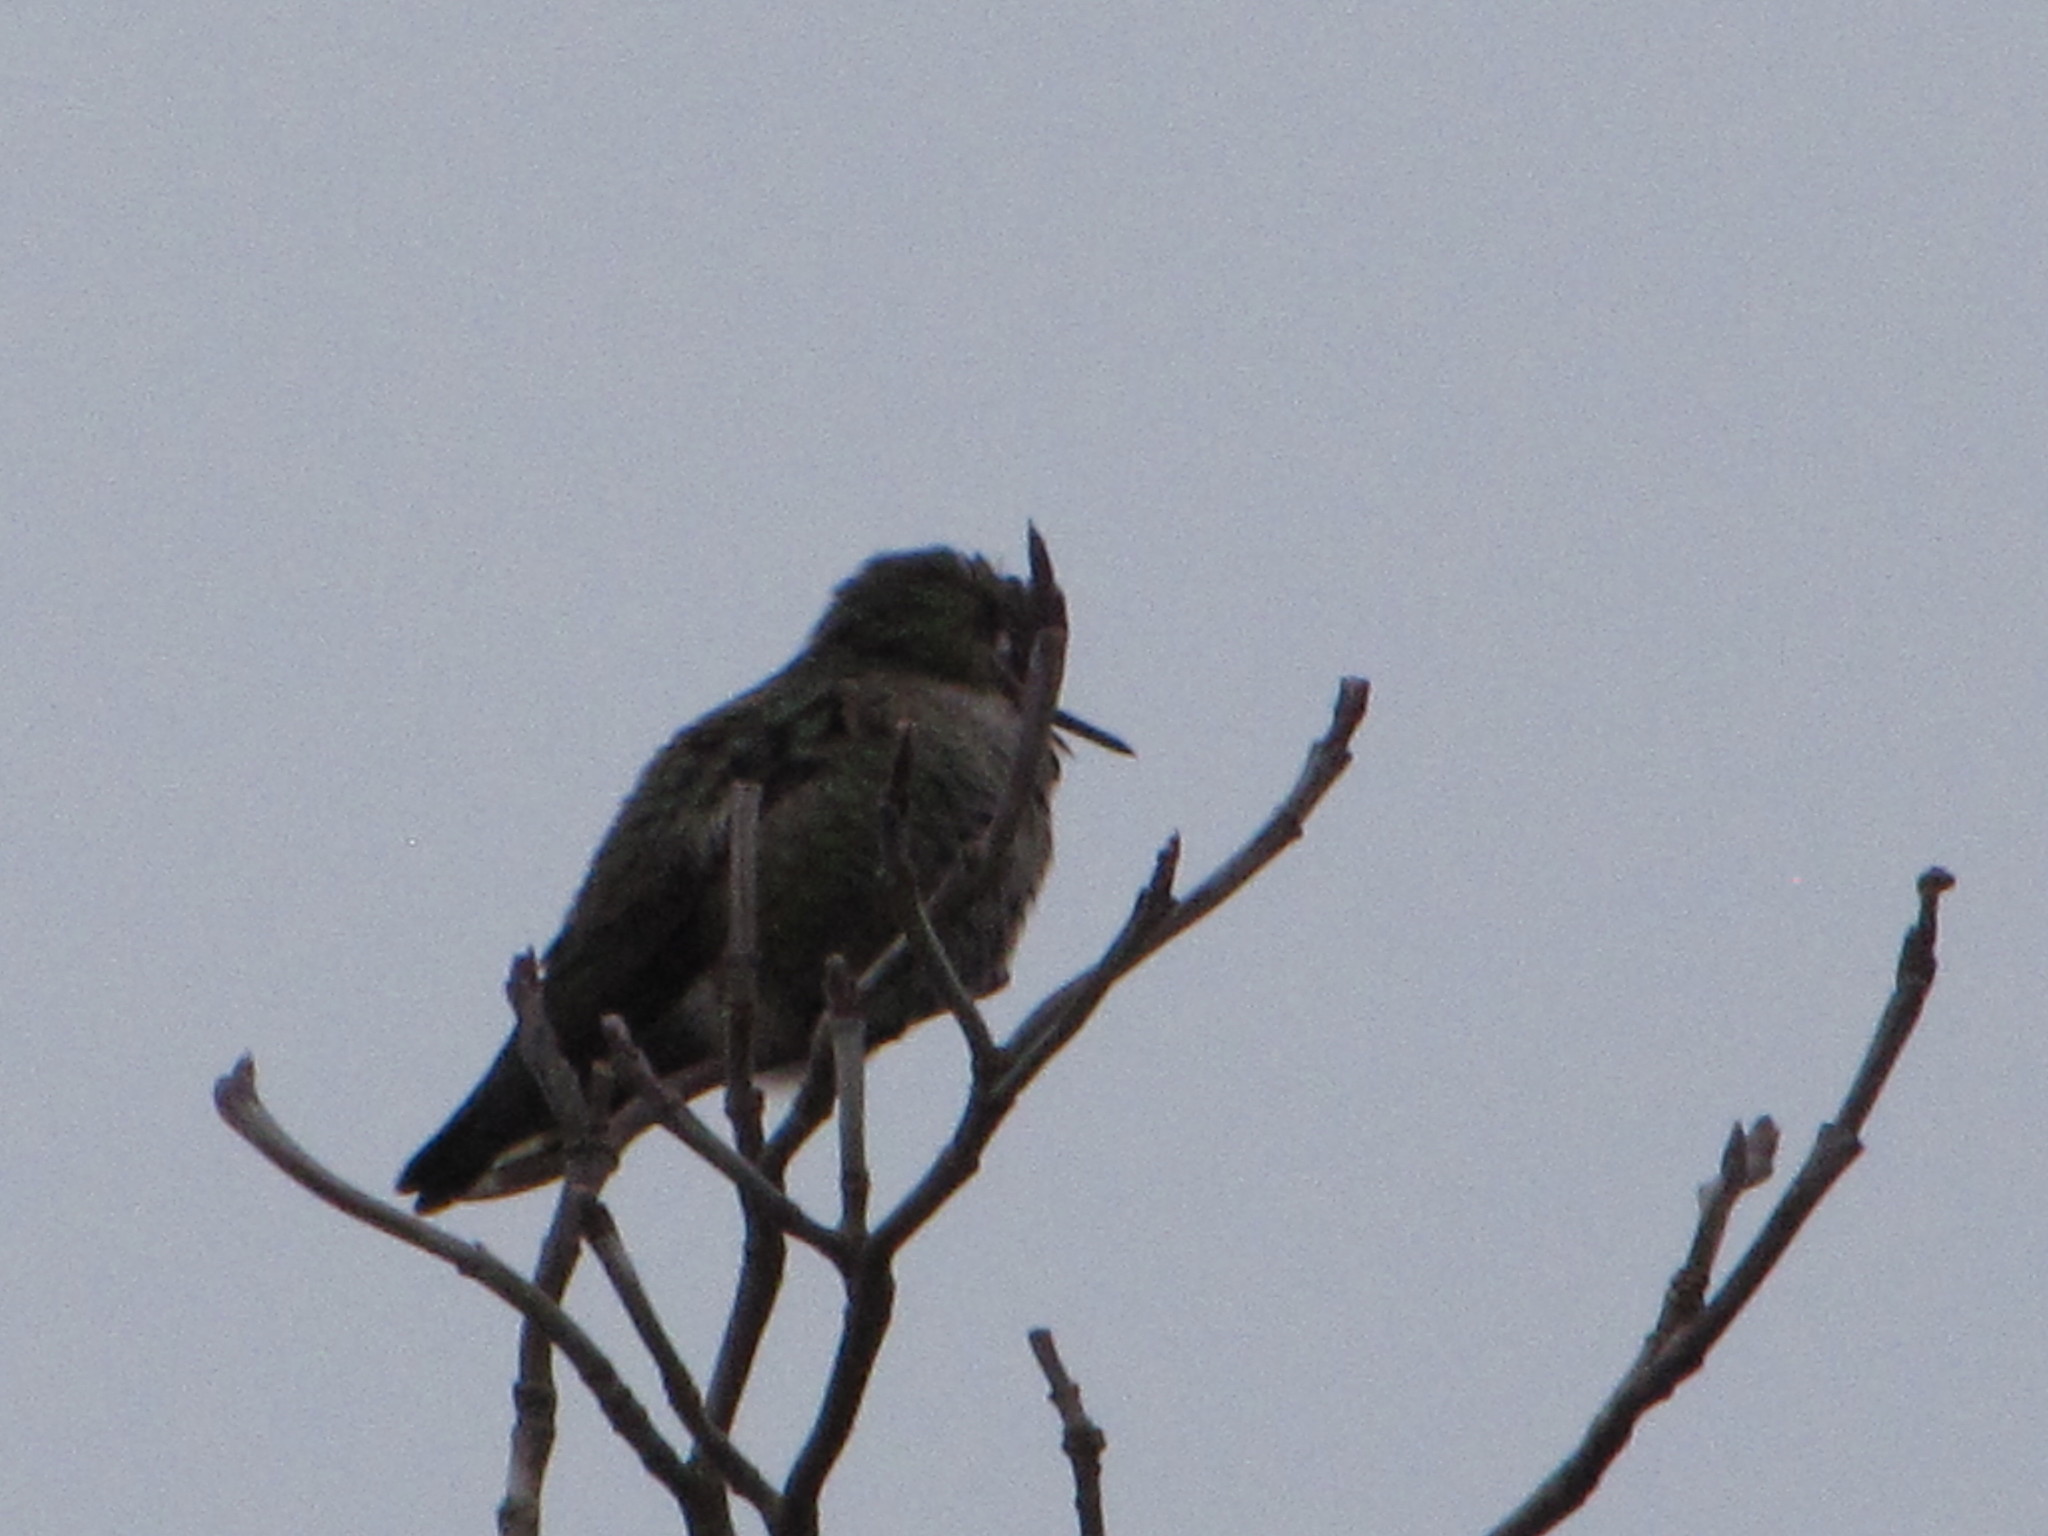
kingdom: Animalia
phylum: Chordata
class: Aves
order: Apodiformes
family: Trochilidae
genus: Calypte
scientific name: Calypte anna
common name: Anna's hummingbird
